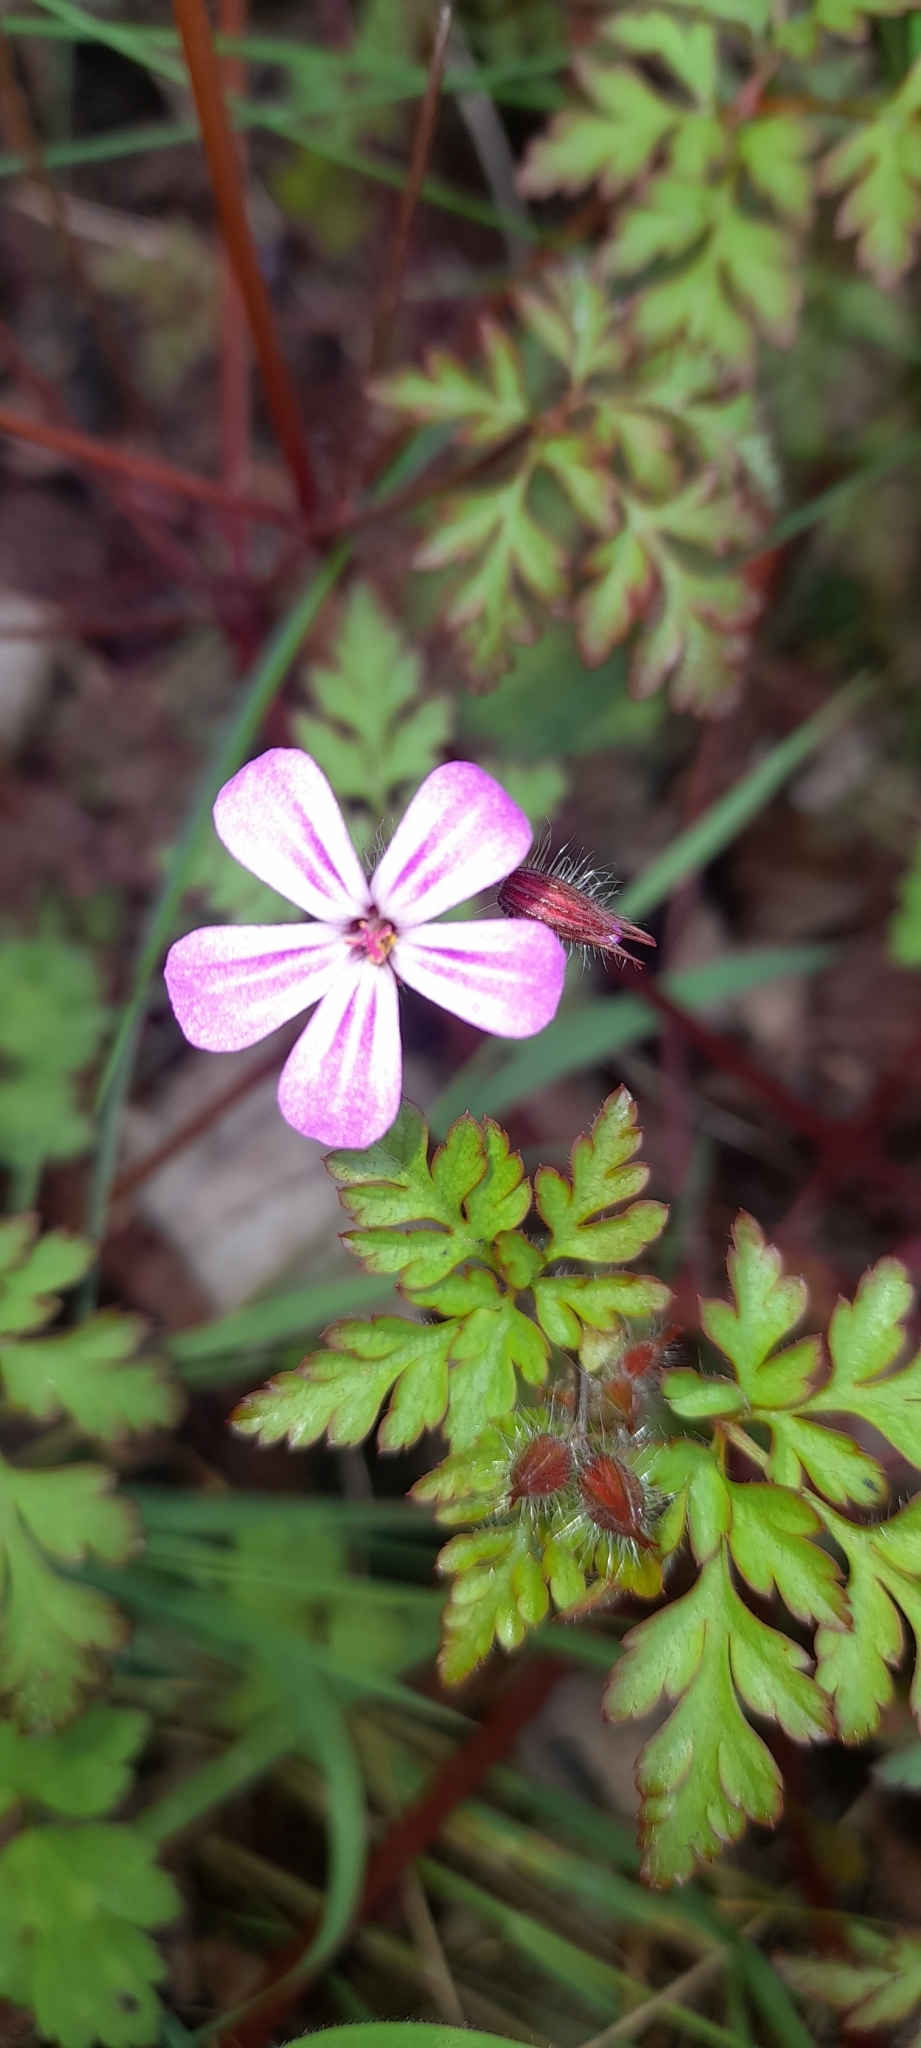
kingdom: Plantae
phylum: Tracheophyta
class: Magnoliopsida
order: Geraniales
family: Geraniaceae
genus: Geranium
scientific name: Geranium robertianum
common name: Herb-robert
